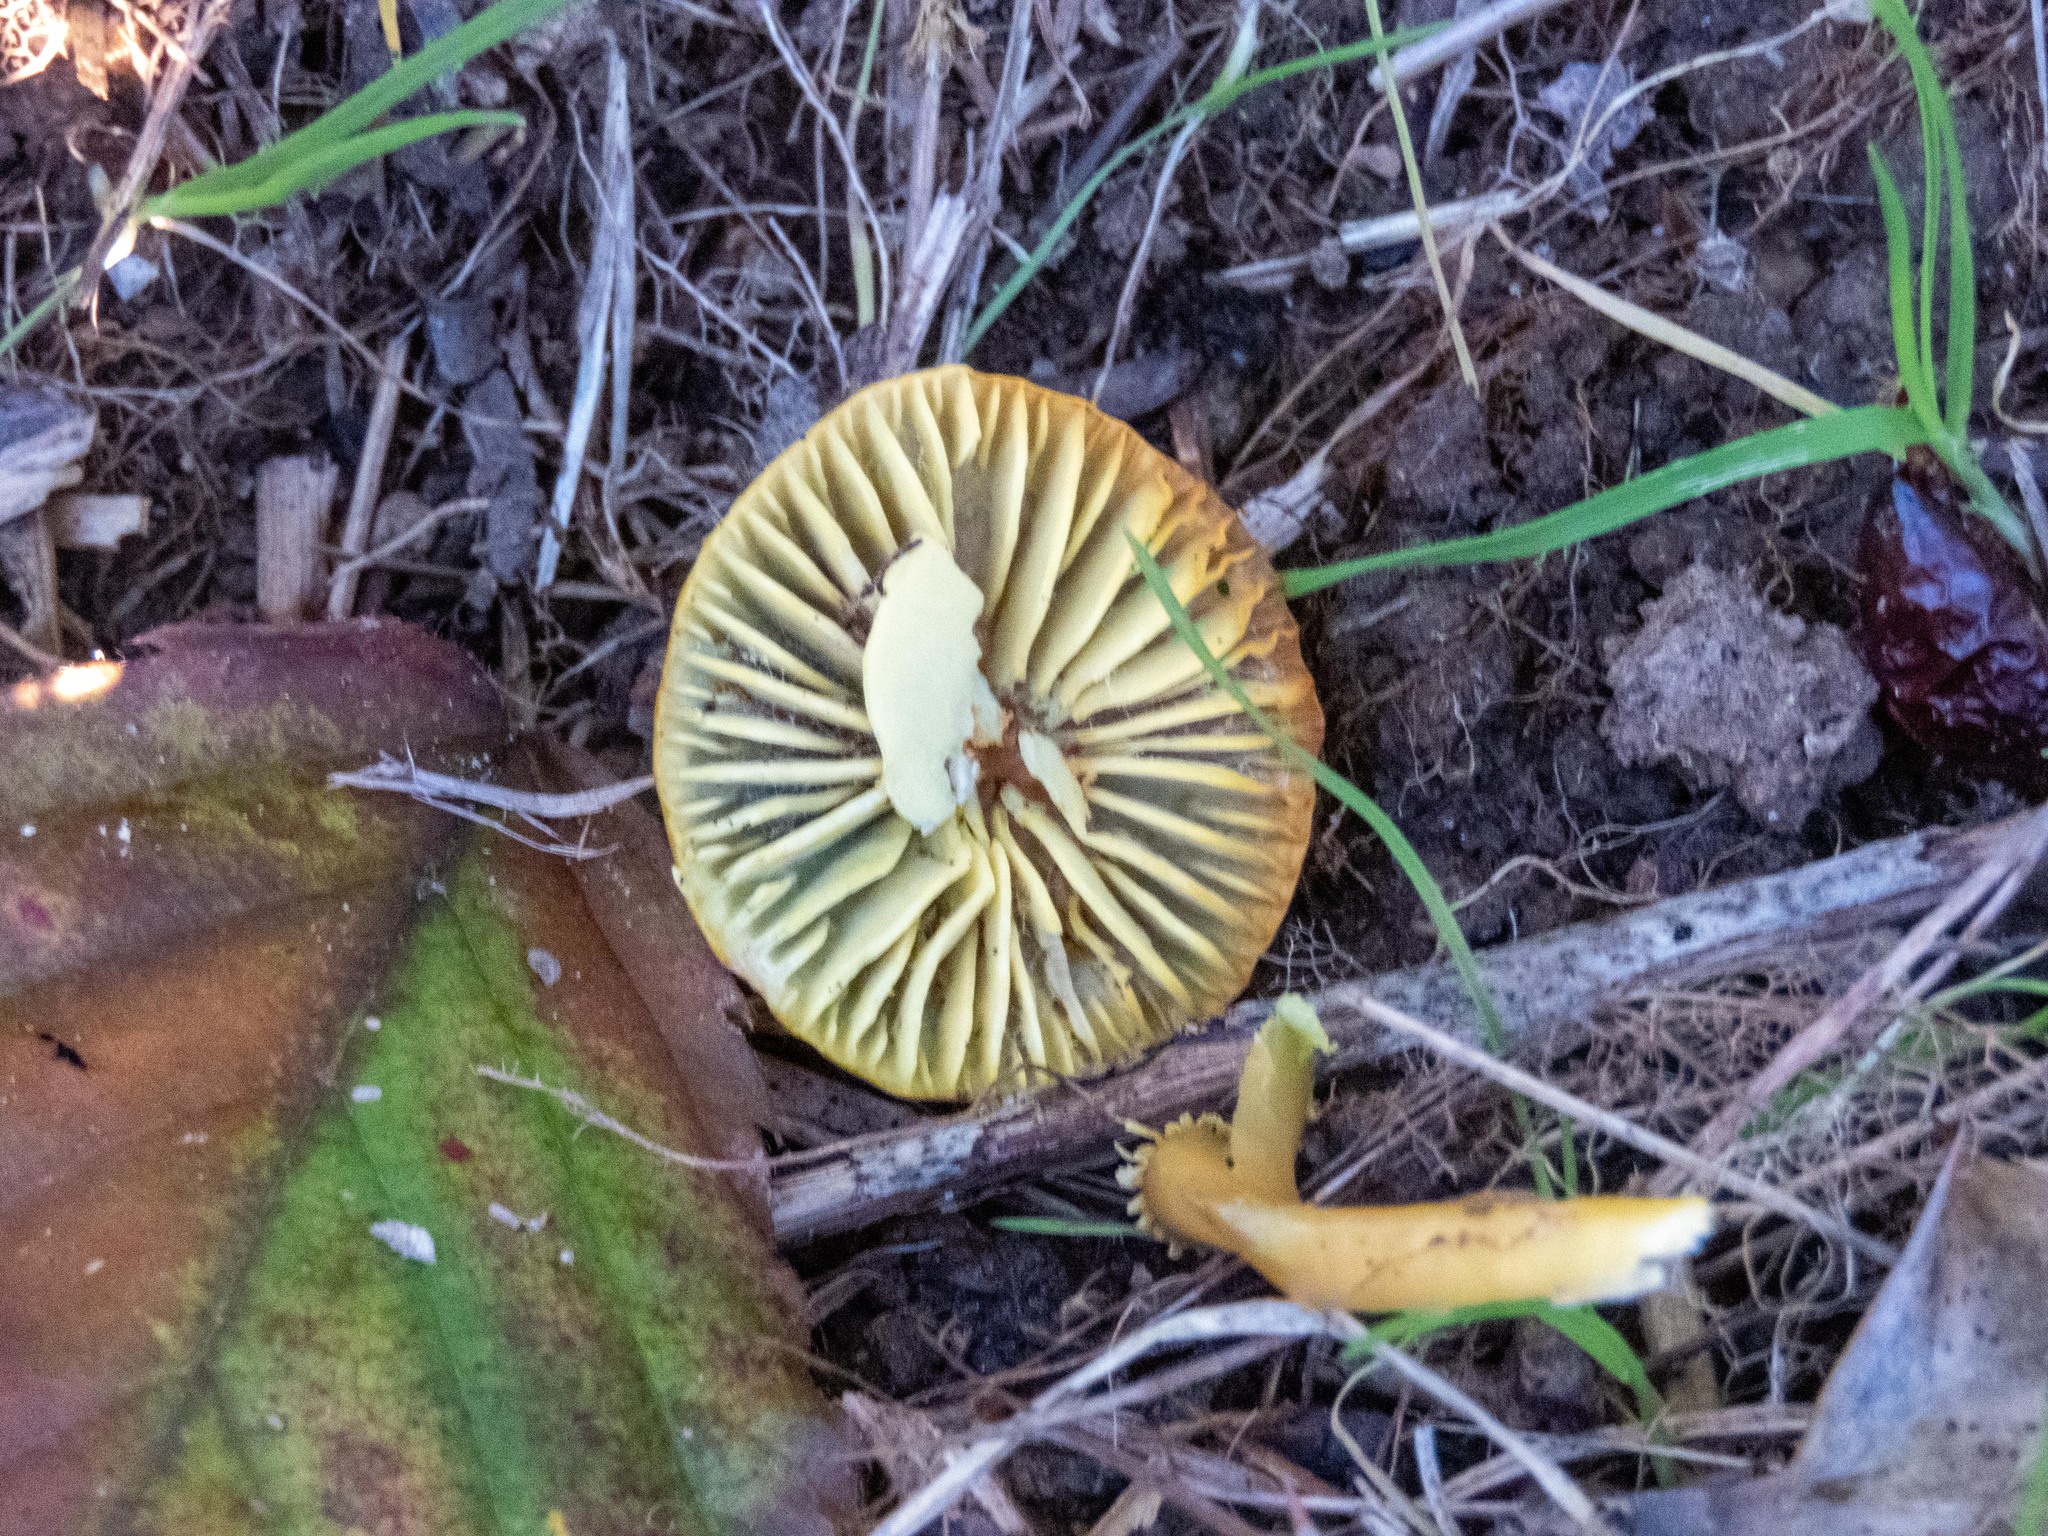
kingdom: Fungi
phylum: Basidiomycota
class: Agaricomycetes
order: Agaricales
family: Hygrophoraceae
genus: Gliophorus
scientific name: Gliophorus psittacinus
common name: Parrot wax-cap
